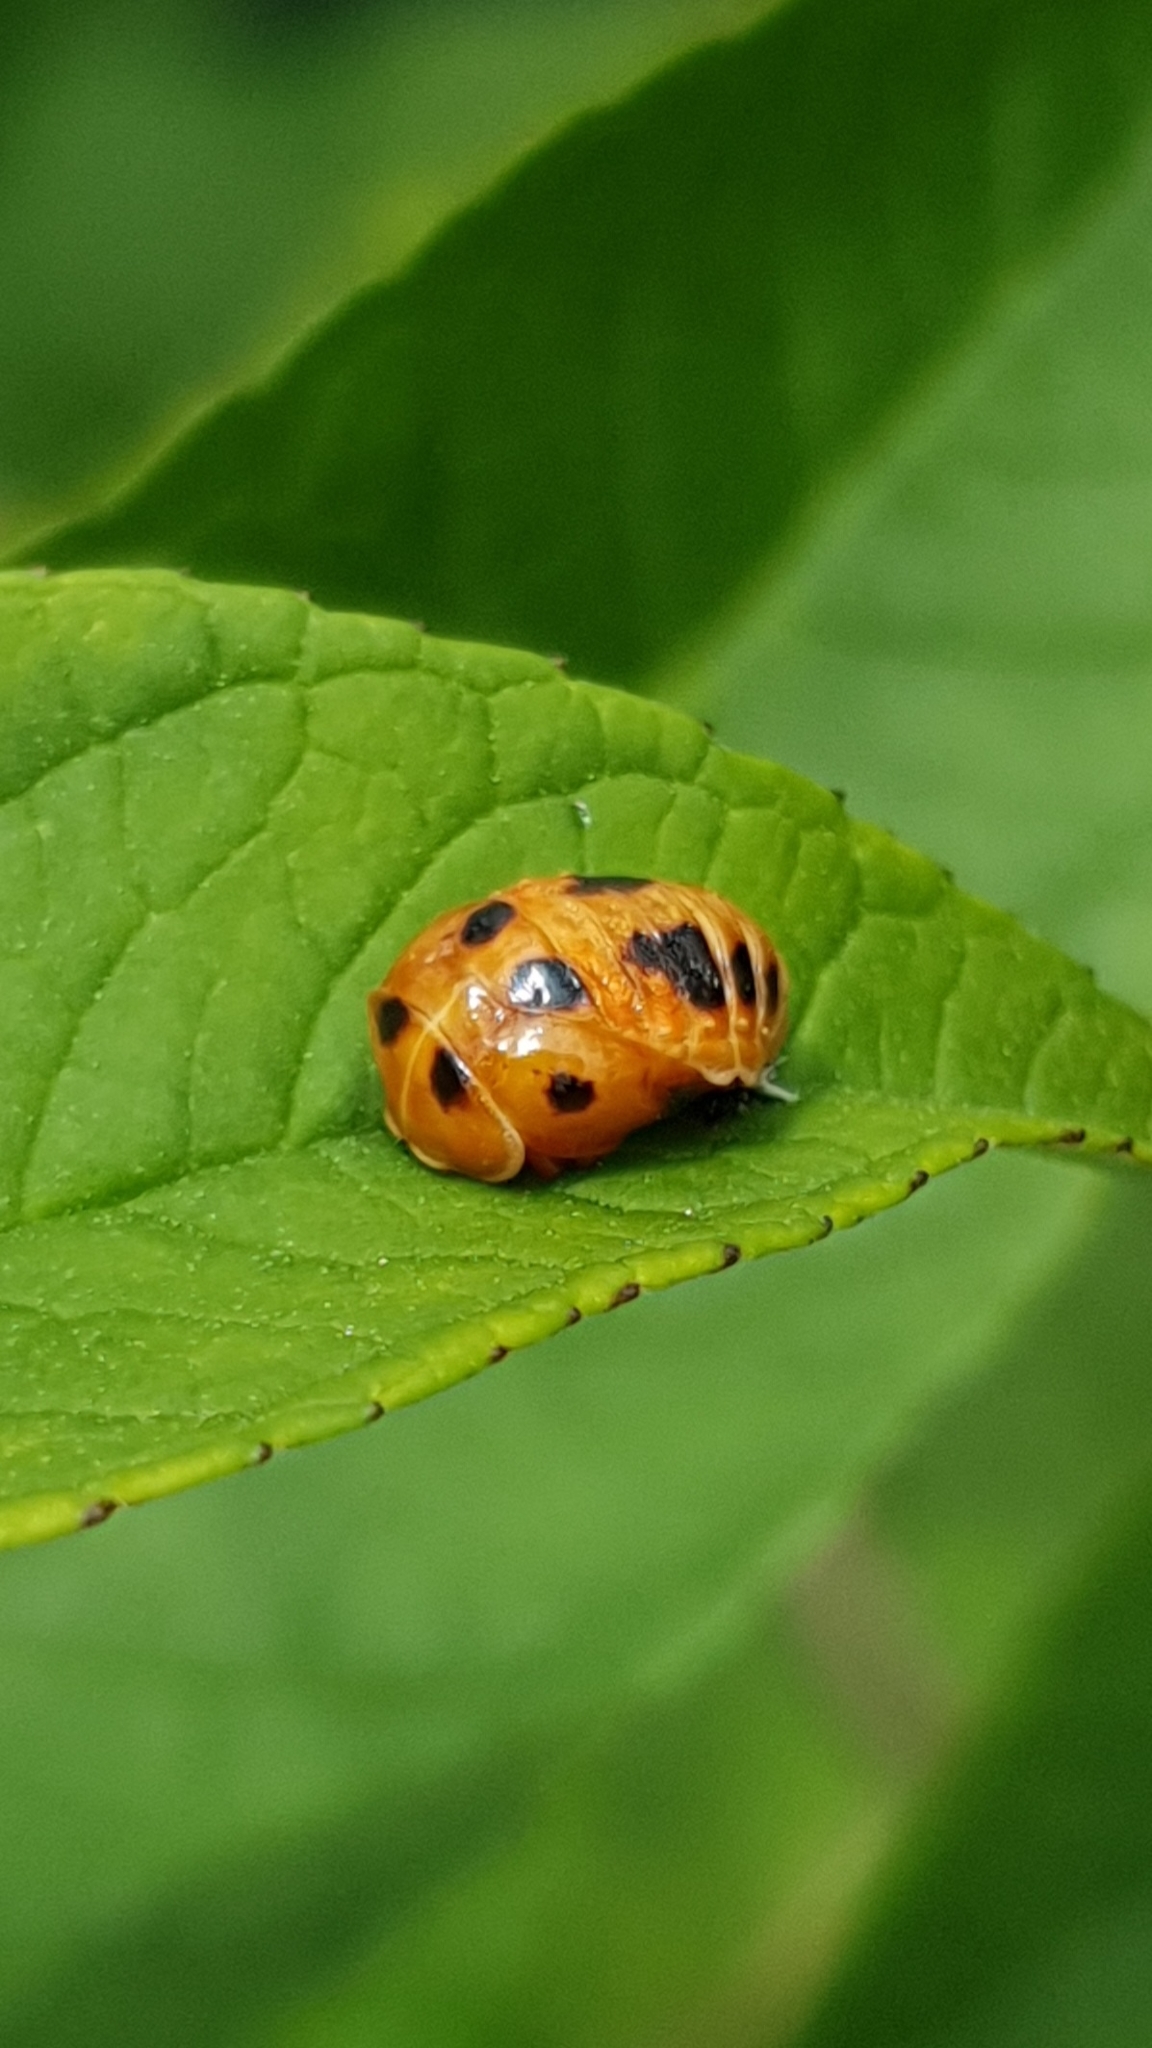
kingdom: Animalia
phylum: Arthropoda
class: Insecta
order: Coleoptera
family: Coccinellidae
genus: Harmonia
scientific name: Harmonia axyridis
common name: Harlequin ladybird
